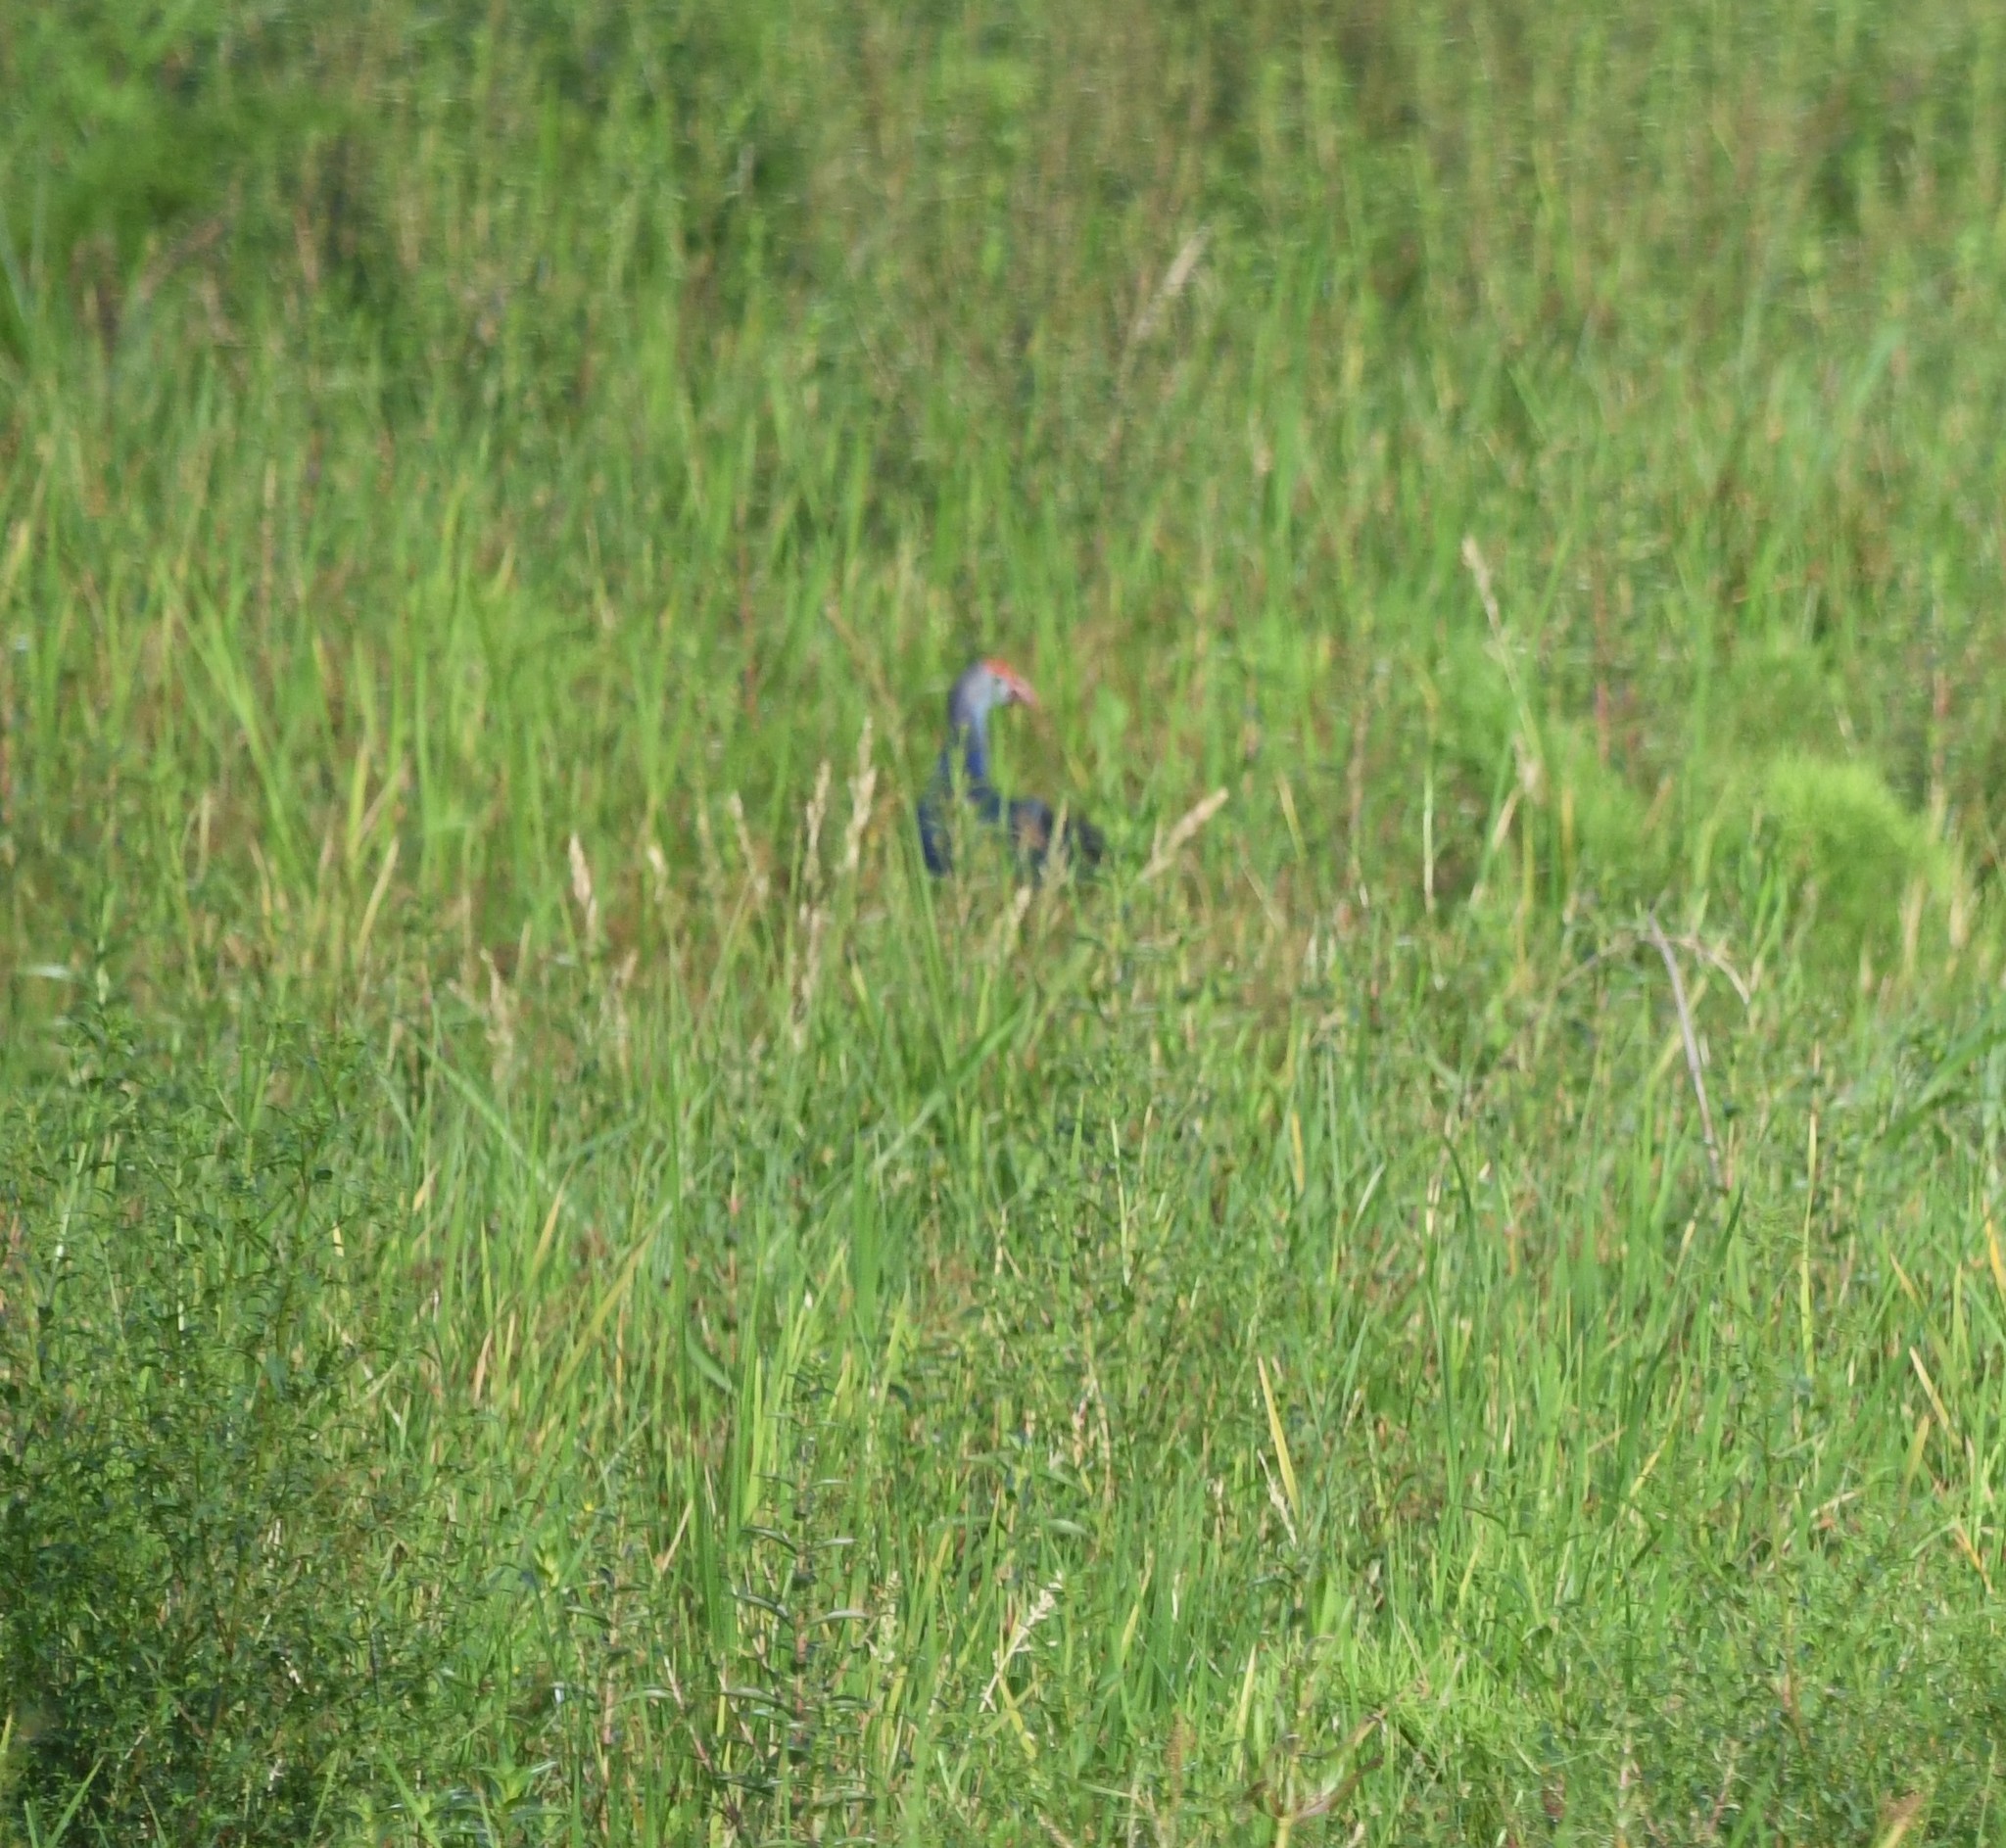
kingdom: Animalia
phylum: Chordata
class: Aves
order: Gruiformes
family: Rallidae
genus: Porphyrio
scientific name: Porphyrio porphyrio
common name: Purple swamphen
